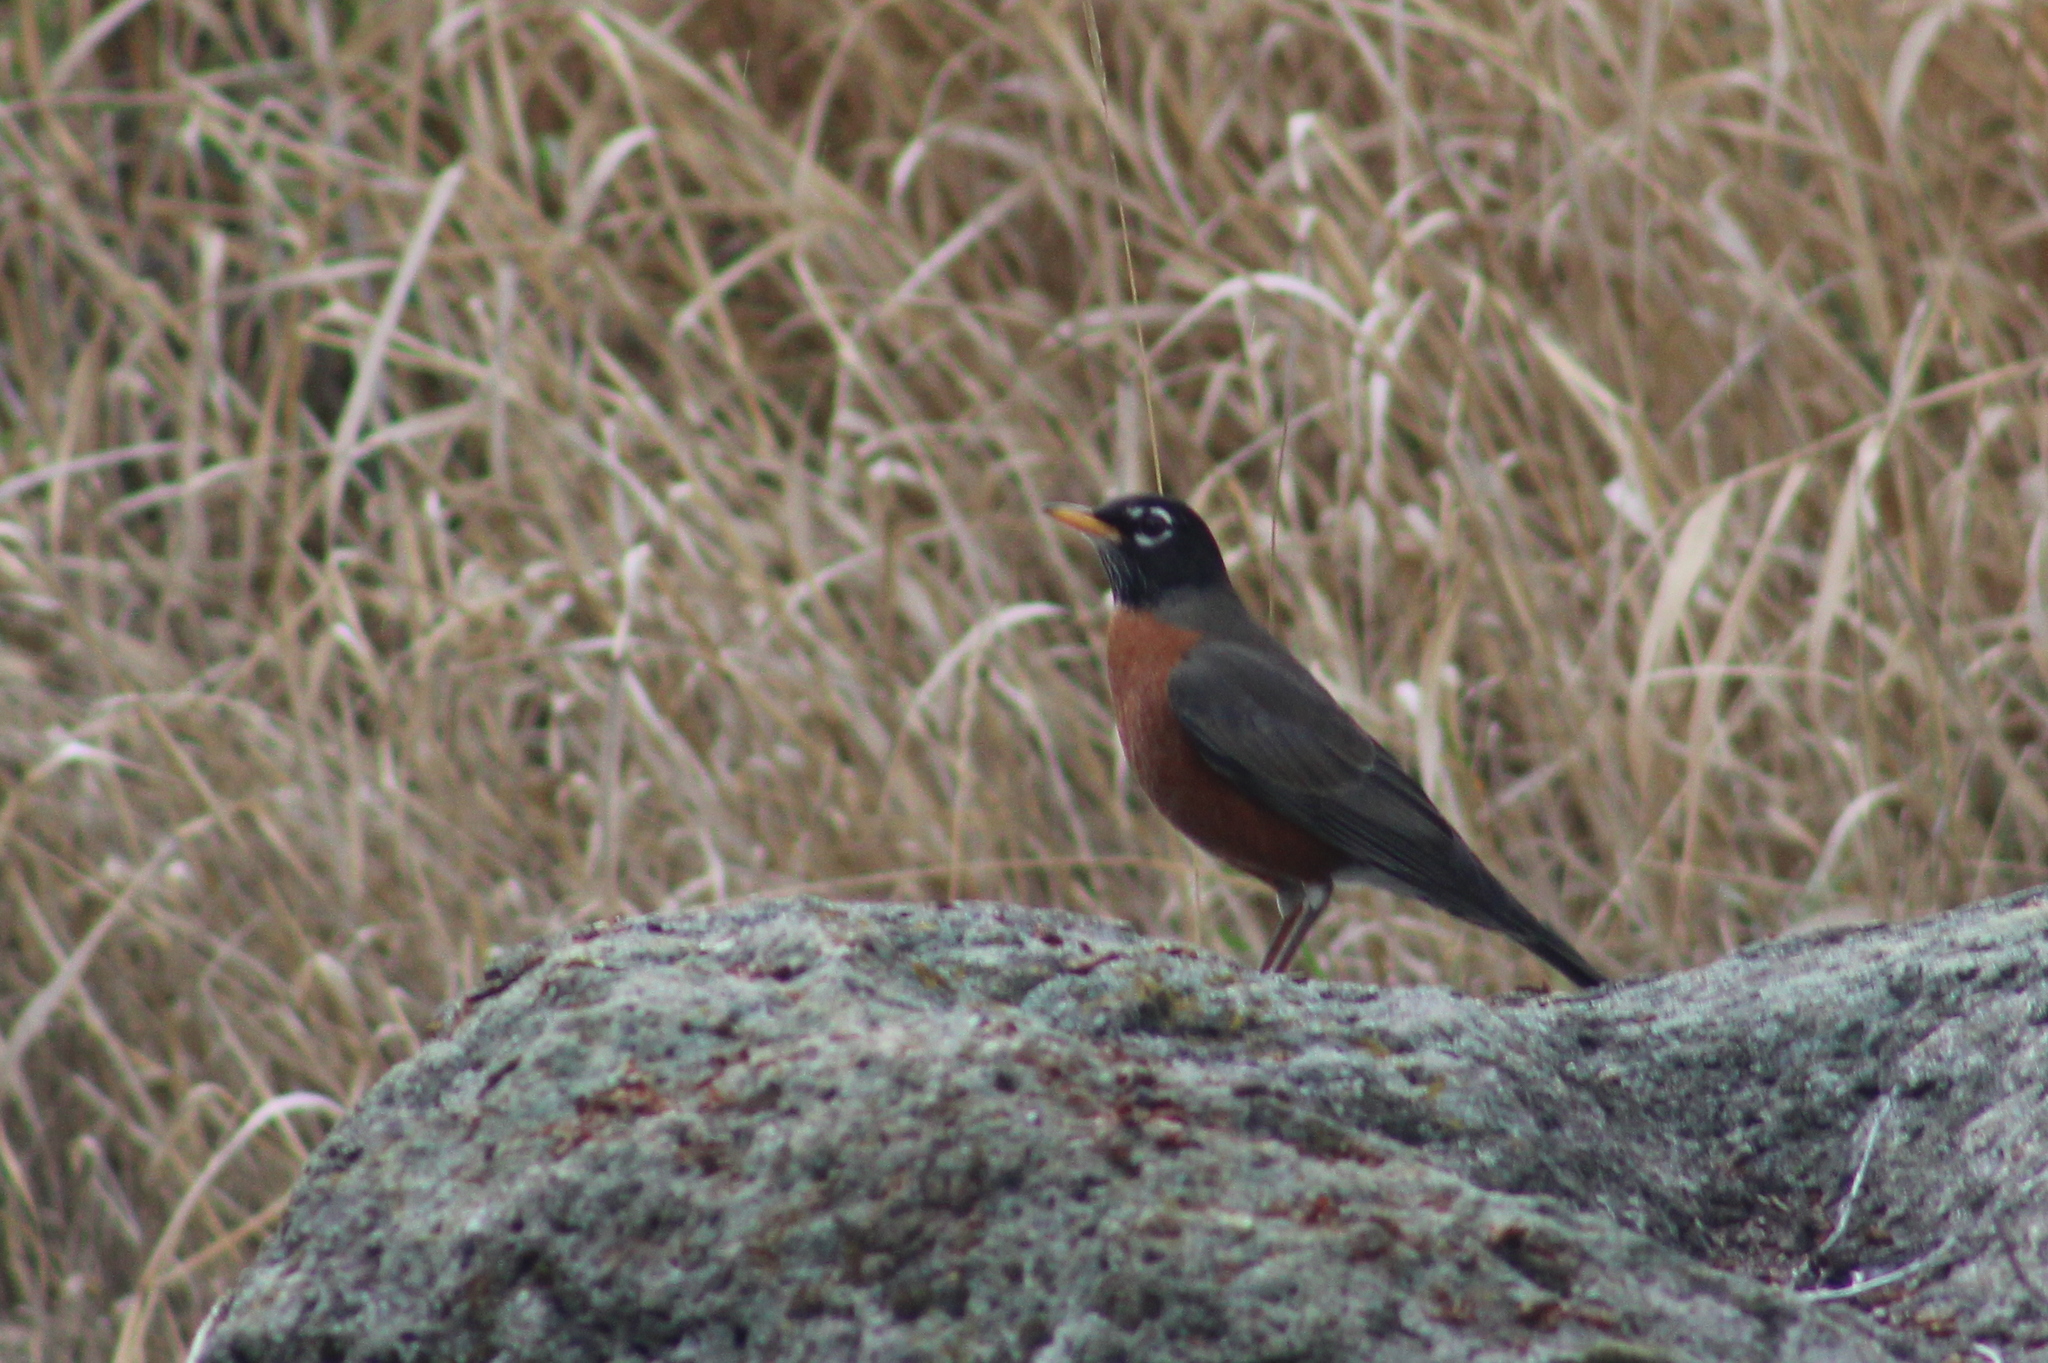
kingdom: Animalia
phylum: Chordata
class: Aves
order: Passeriformes
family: Turdidae
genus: Turdus
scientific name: Turdus migratorius
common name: American robin
